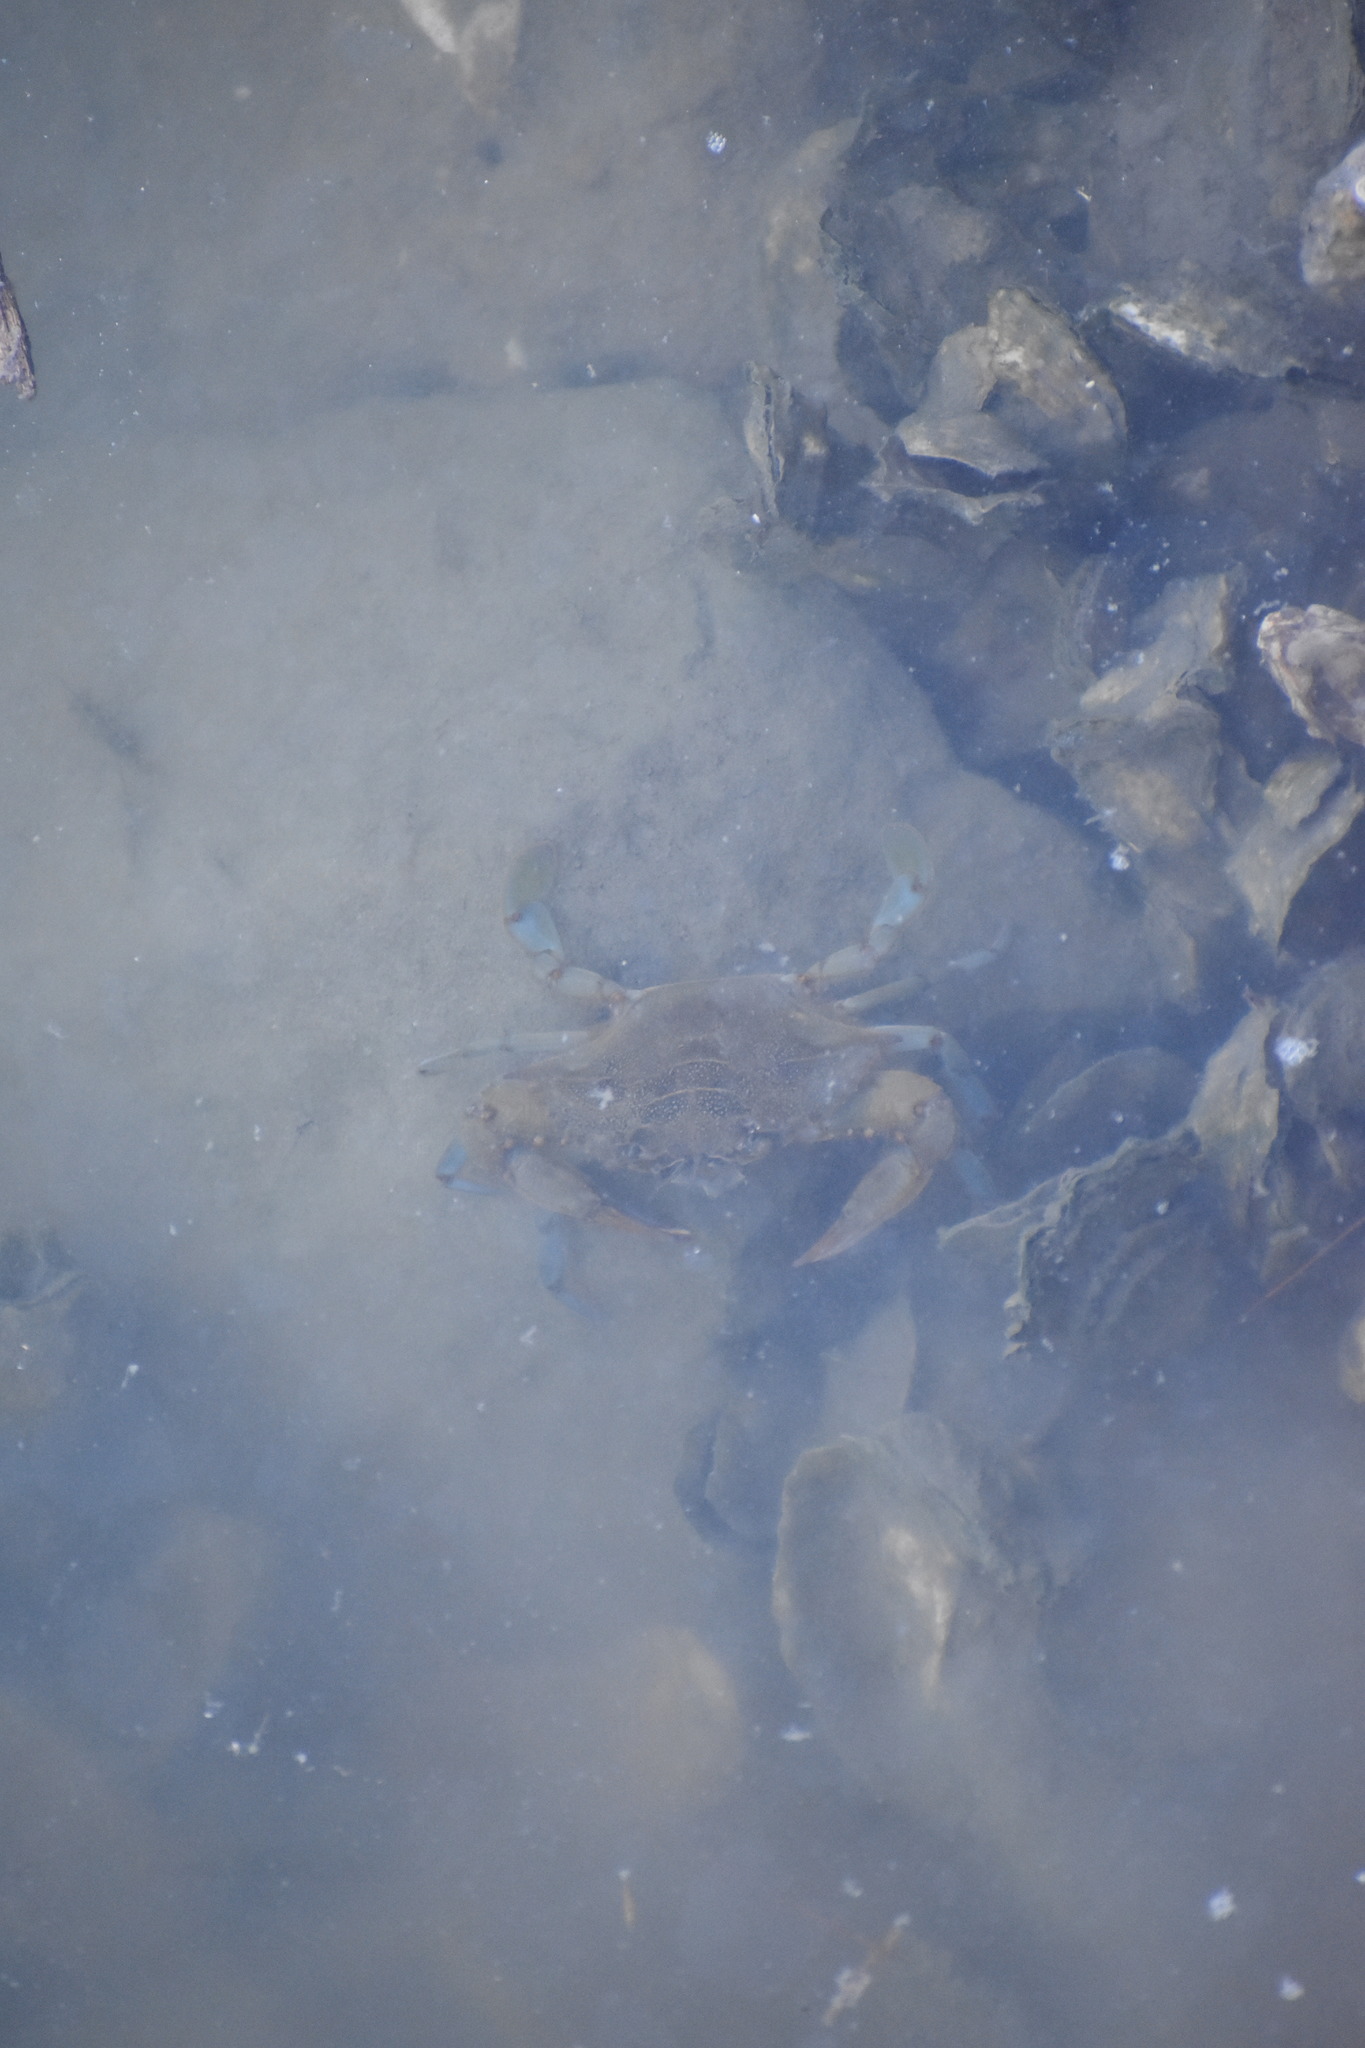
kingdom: Animalia
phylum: Arthropoda
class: Malacostraca
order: Decapoda
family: Portunidae
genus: Callinectes
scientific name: Callinectes sapidus
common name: Blue crab
